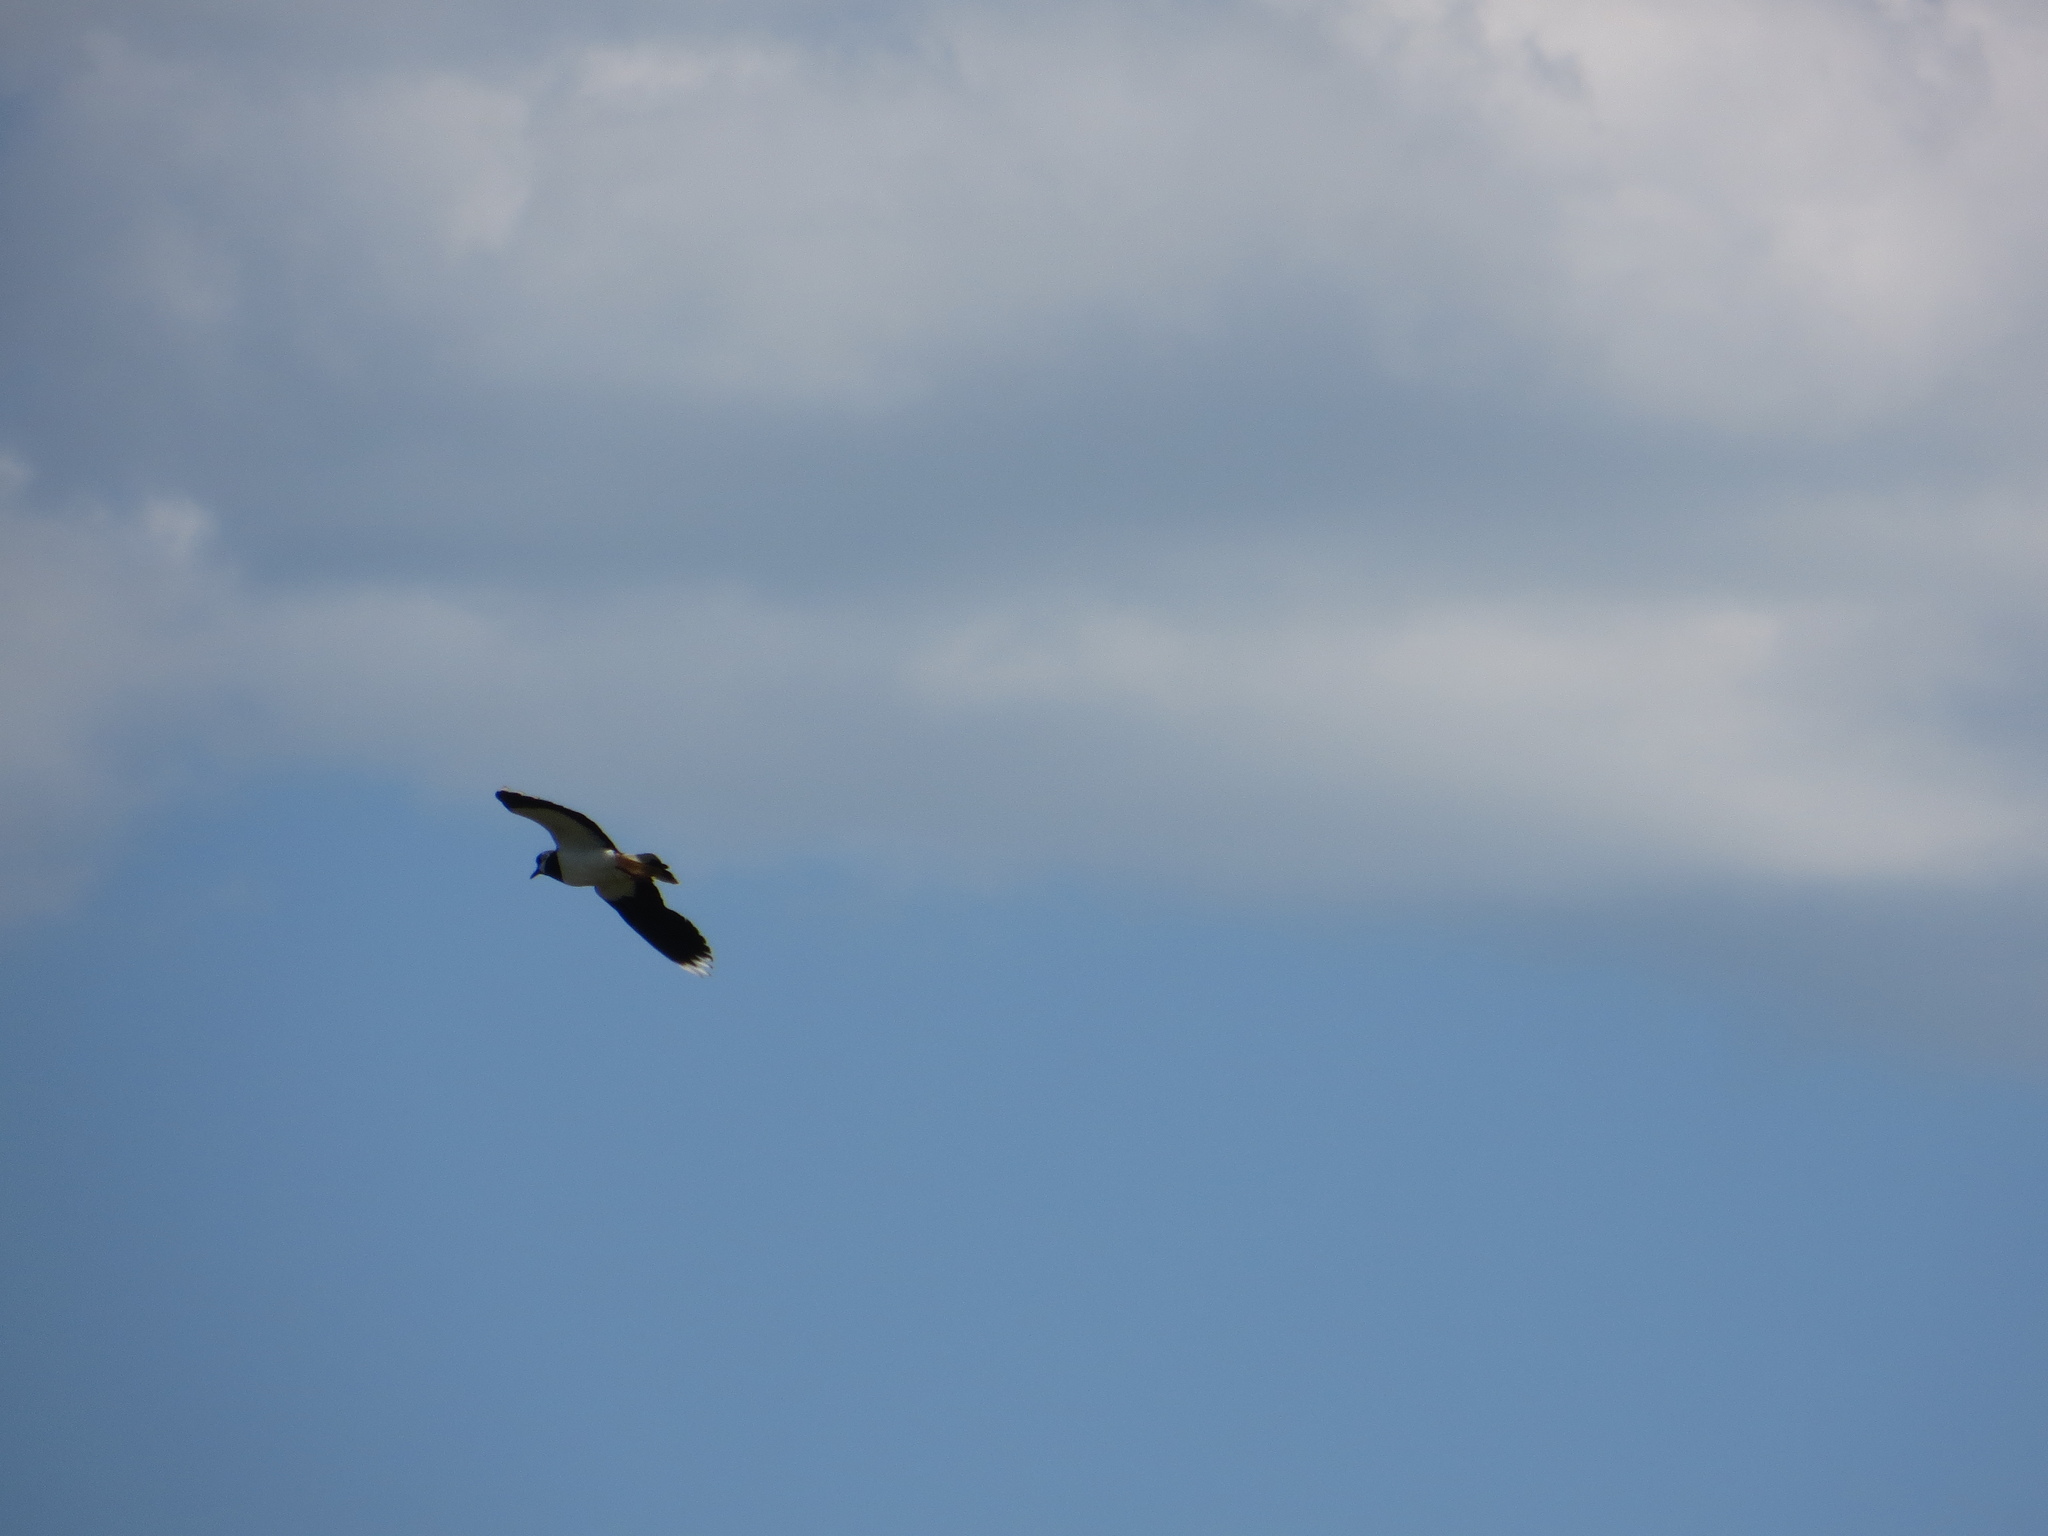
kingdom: Animalia
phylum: Chordata
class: Aves
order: Charadriiformes
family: Charadriidae
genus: Vanellus
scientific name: Vanellus vanellus
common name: Northern lapwing
